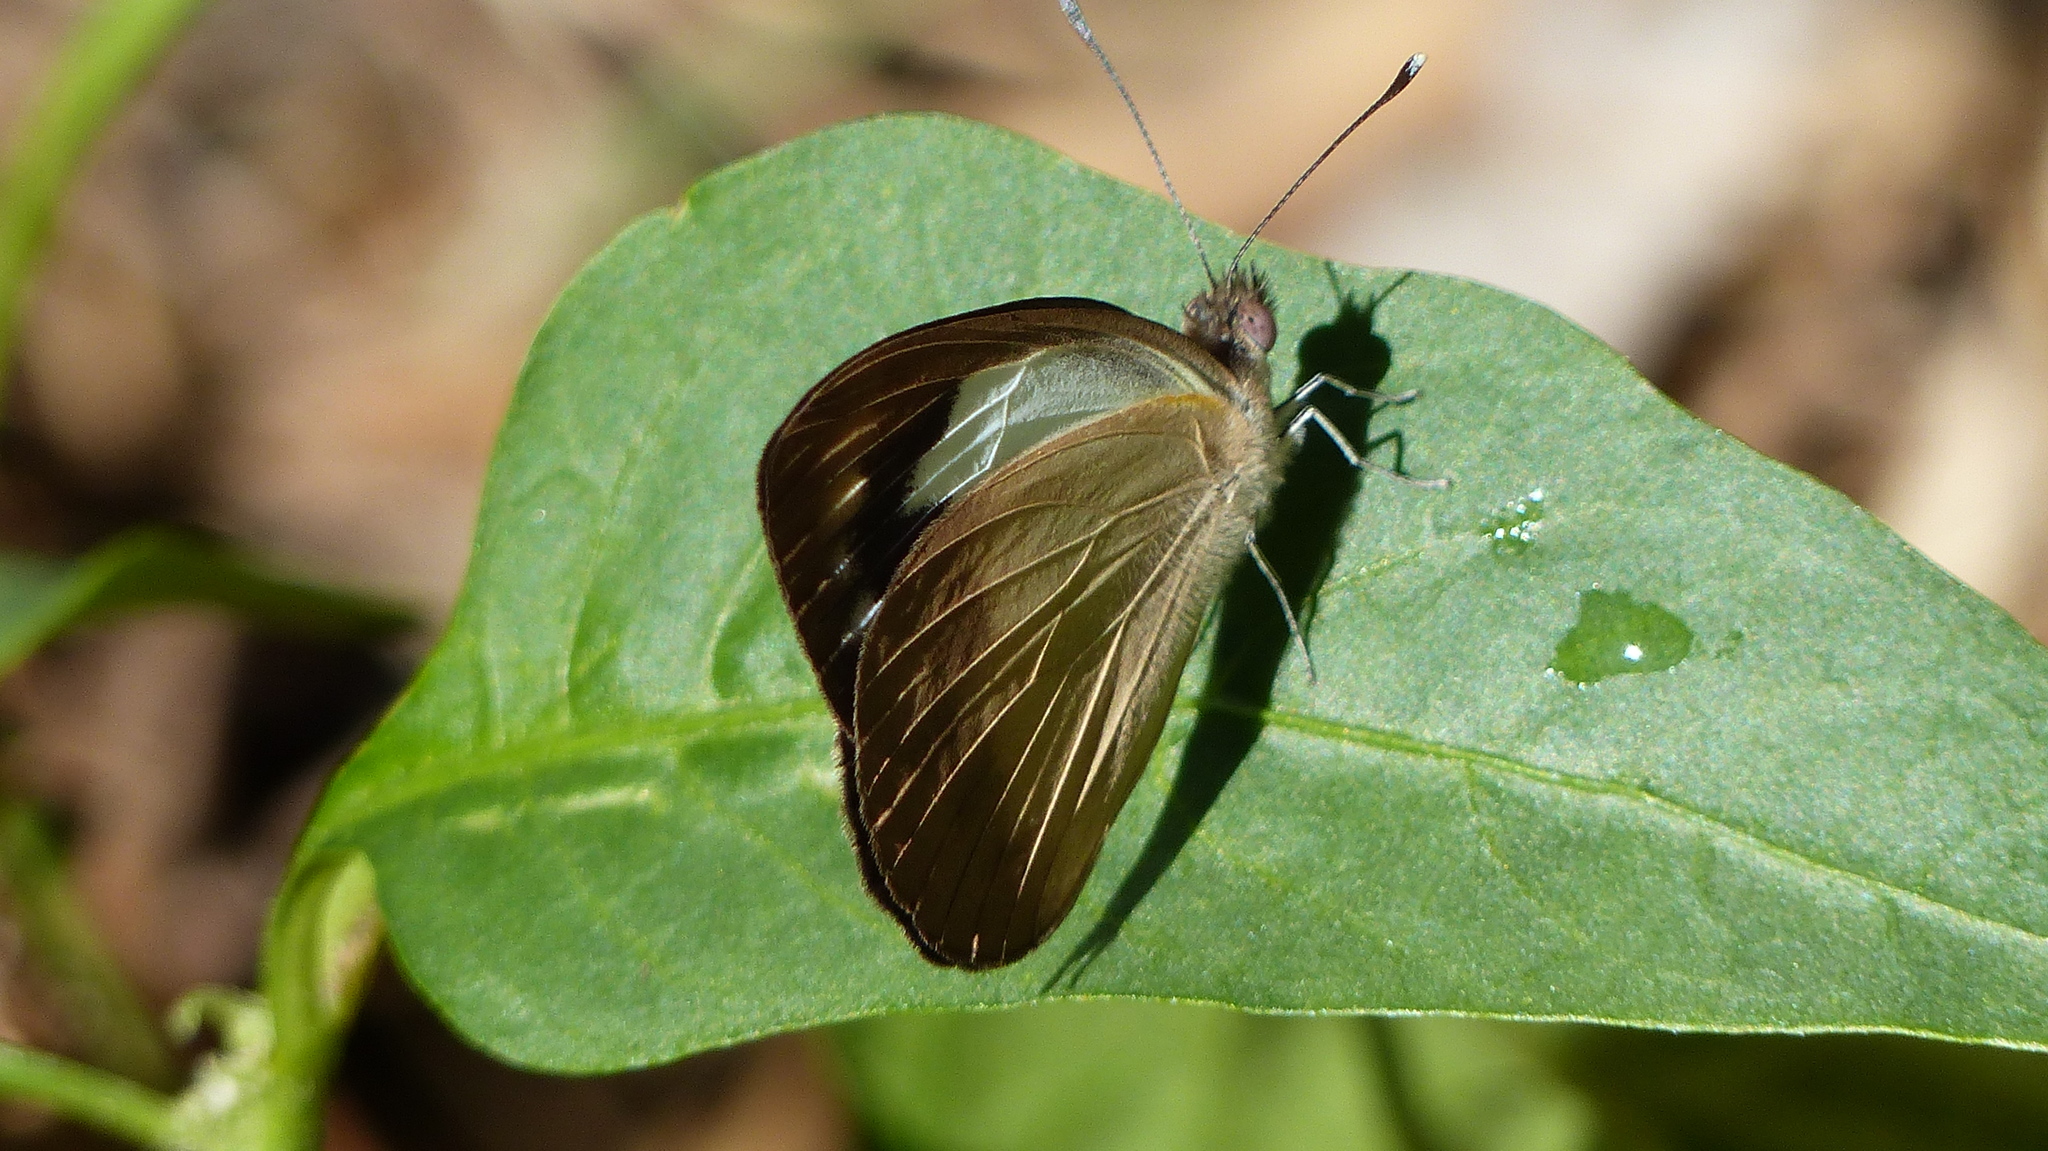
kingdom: Animalia
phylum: Arthropoda
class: Insecta
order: Lepidoptera
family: Pieridae
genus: Cepora
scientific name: Cepora perimale
